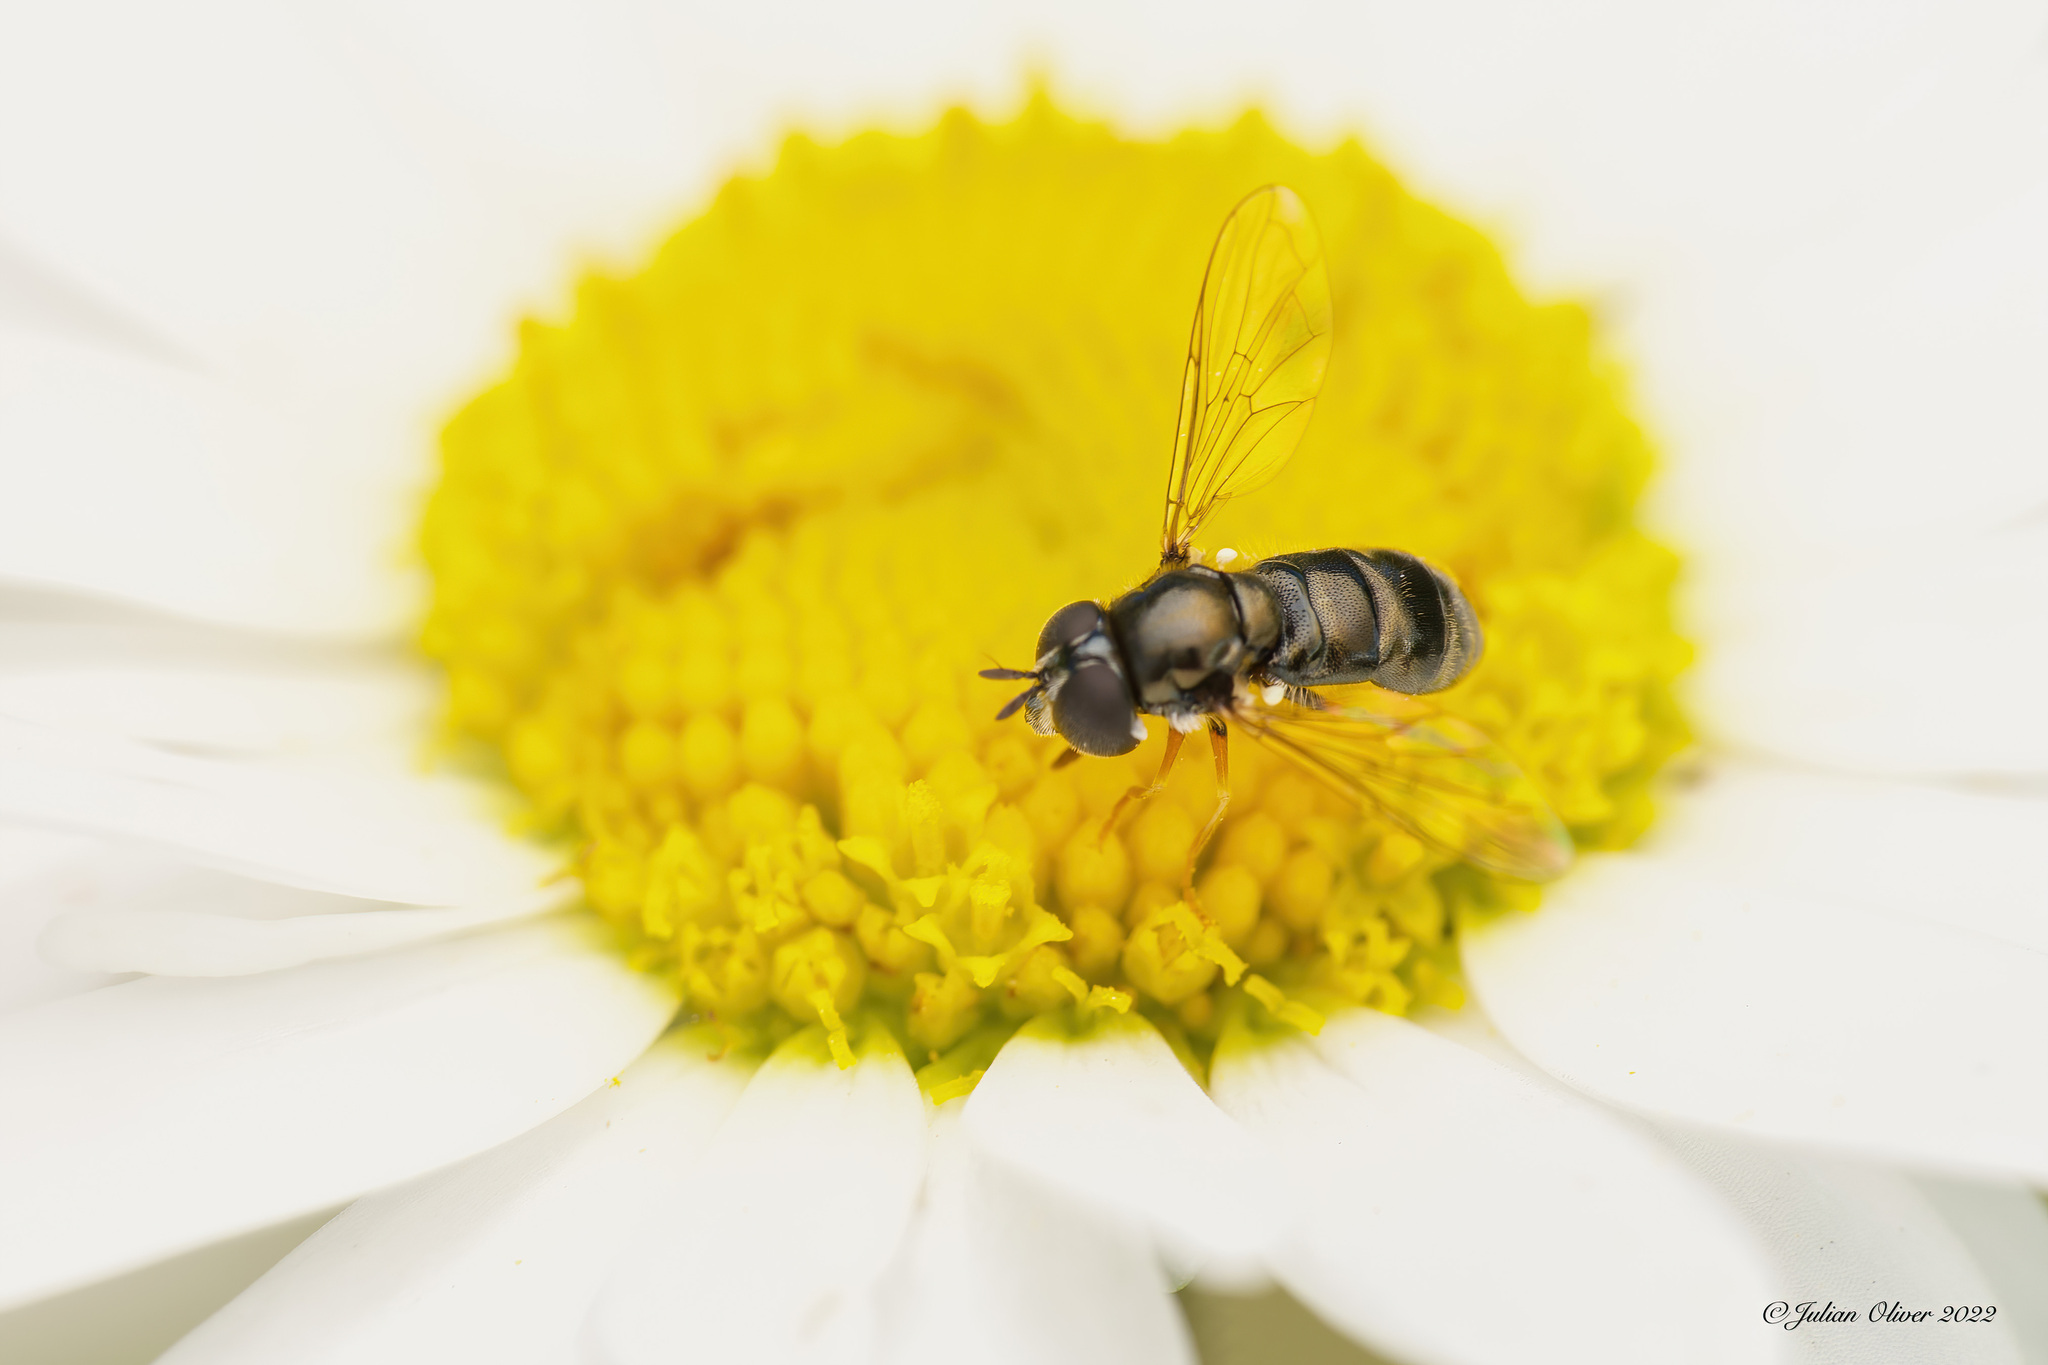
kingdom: Animalia
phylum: Arthropoda
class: Insecta
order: Diptera
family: Syrphidae
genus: Paragus
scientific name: Paragus
